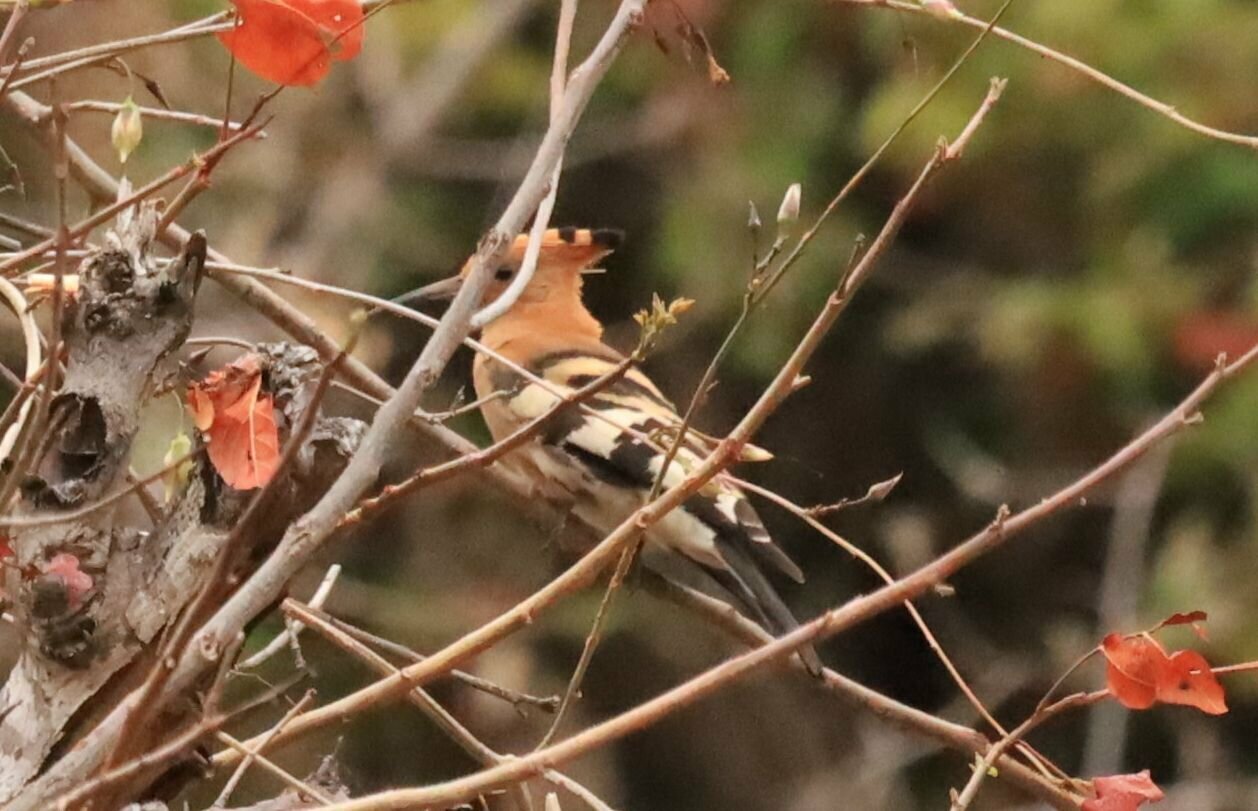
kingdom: Animalia
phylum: Chordata
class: Aves
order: Bucerotiformes
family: Upupidae
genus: Upupa
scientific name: Upupa africana
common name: African hoopoe
